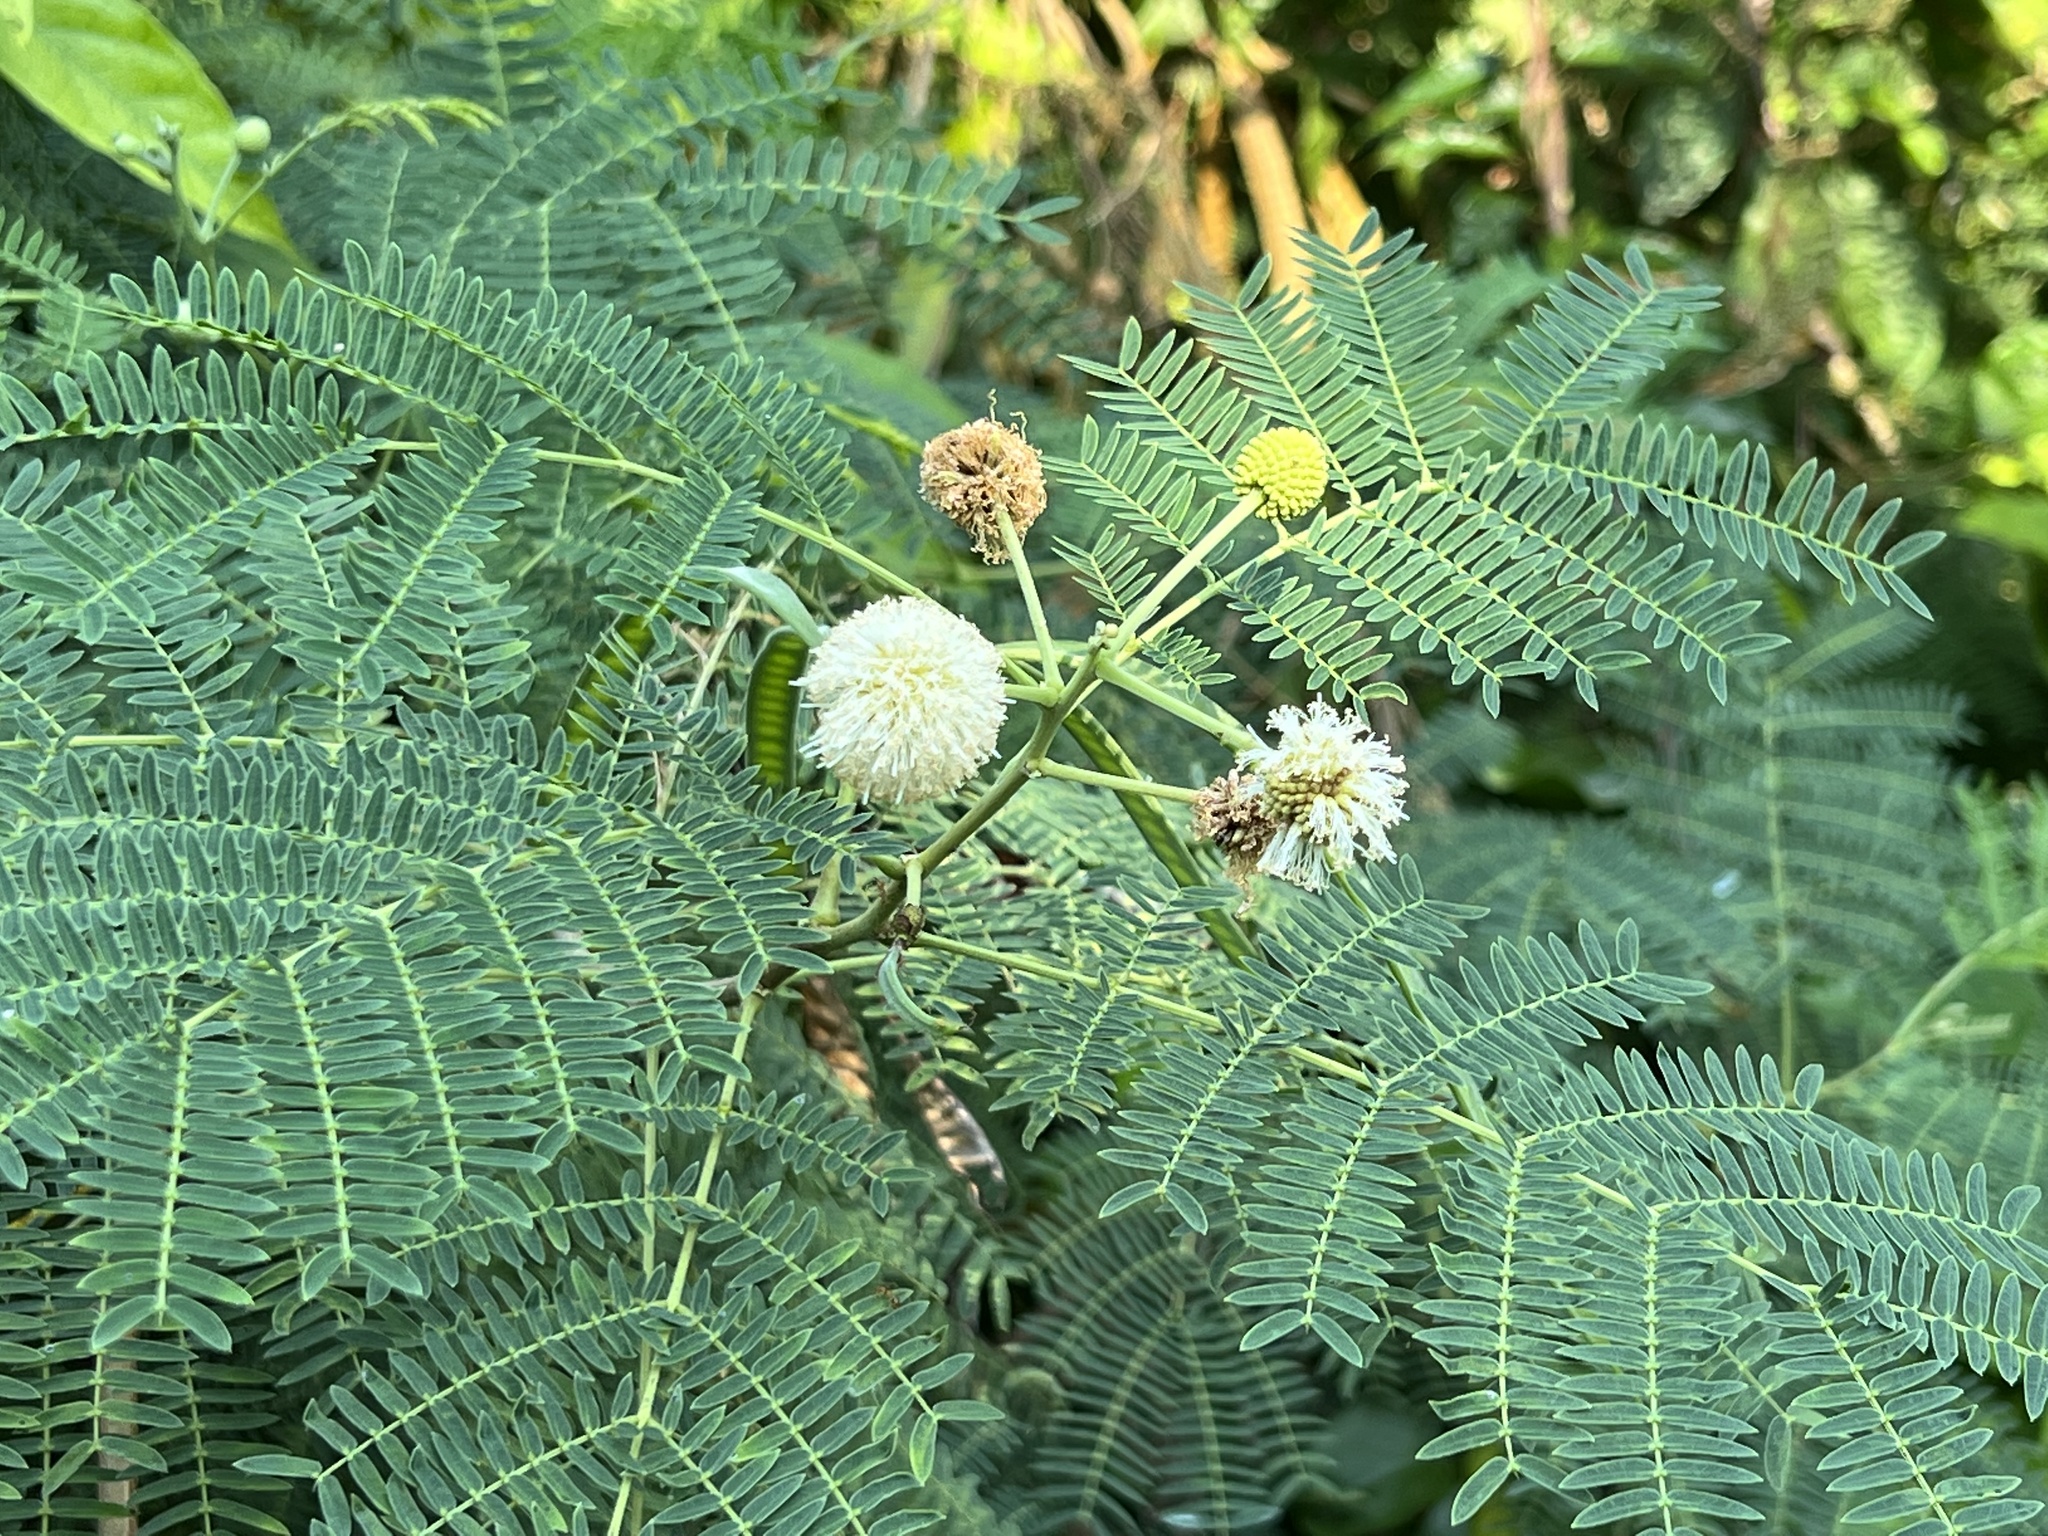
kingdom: Plantae
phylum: Tracheophyta
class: Magnoliopsida
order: Fabales
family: Fabaceae
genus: Leucaena
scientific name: Leucaena leucocephala
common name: White leadtree
